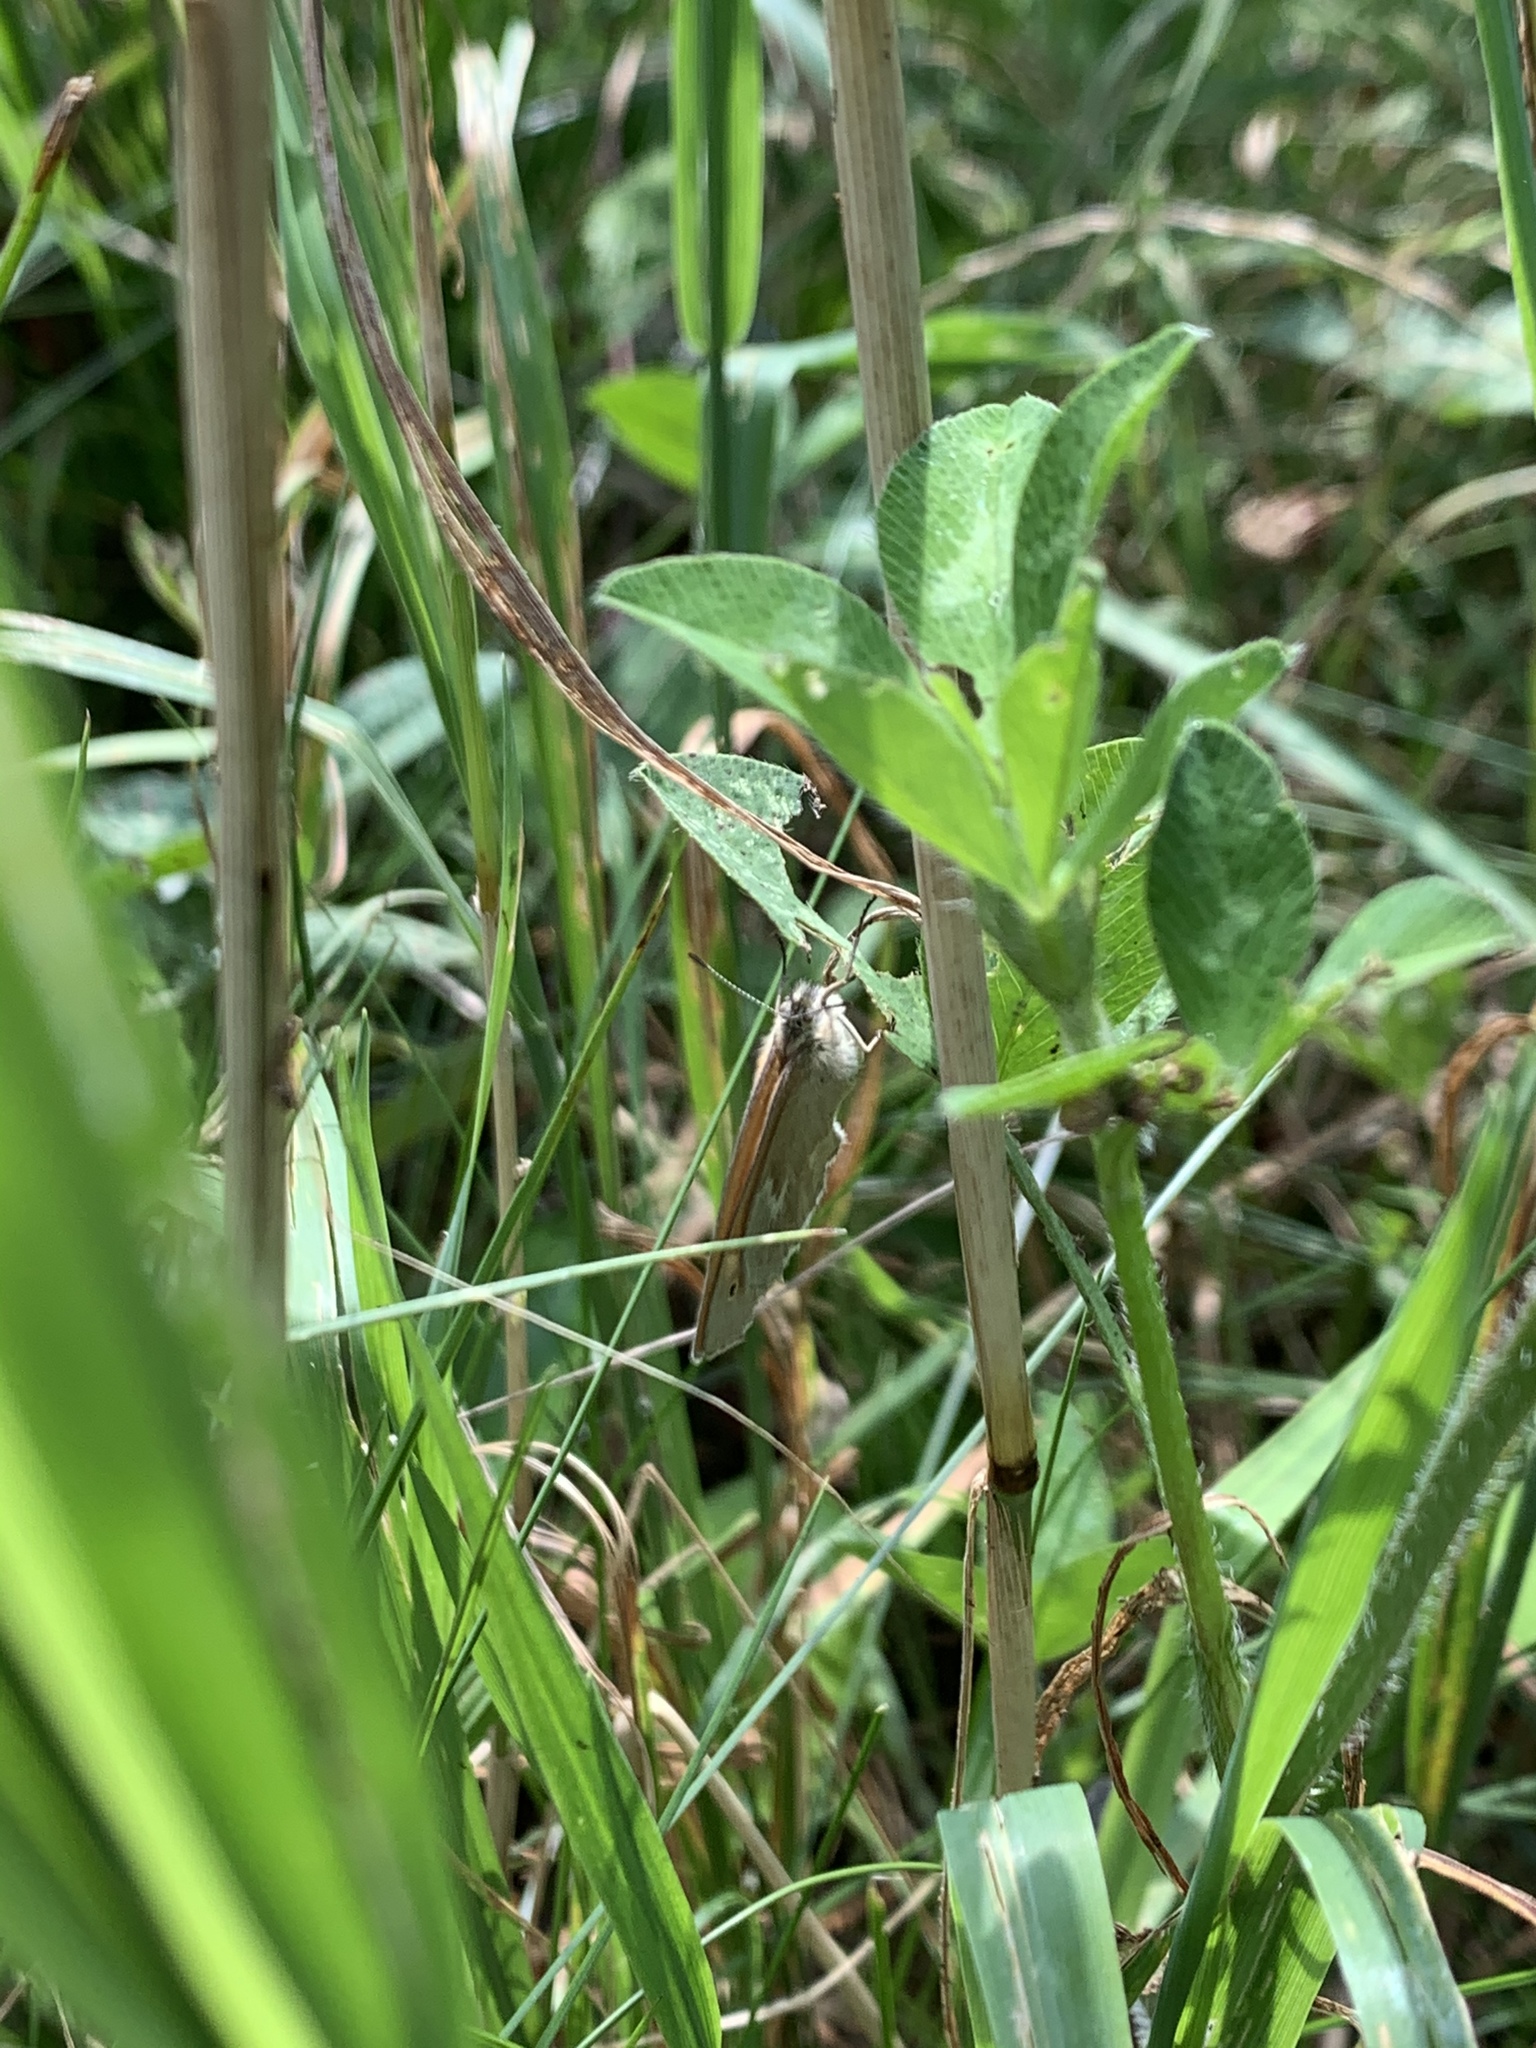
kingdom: Animalia
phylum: Arthropoda
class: Insecta
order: Lepidoptera
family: Nymphalidae
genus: Coenonympha
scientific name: Coenonympha california
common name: Common ringlet
